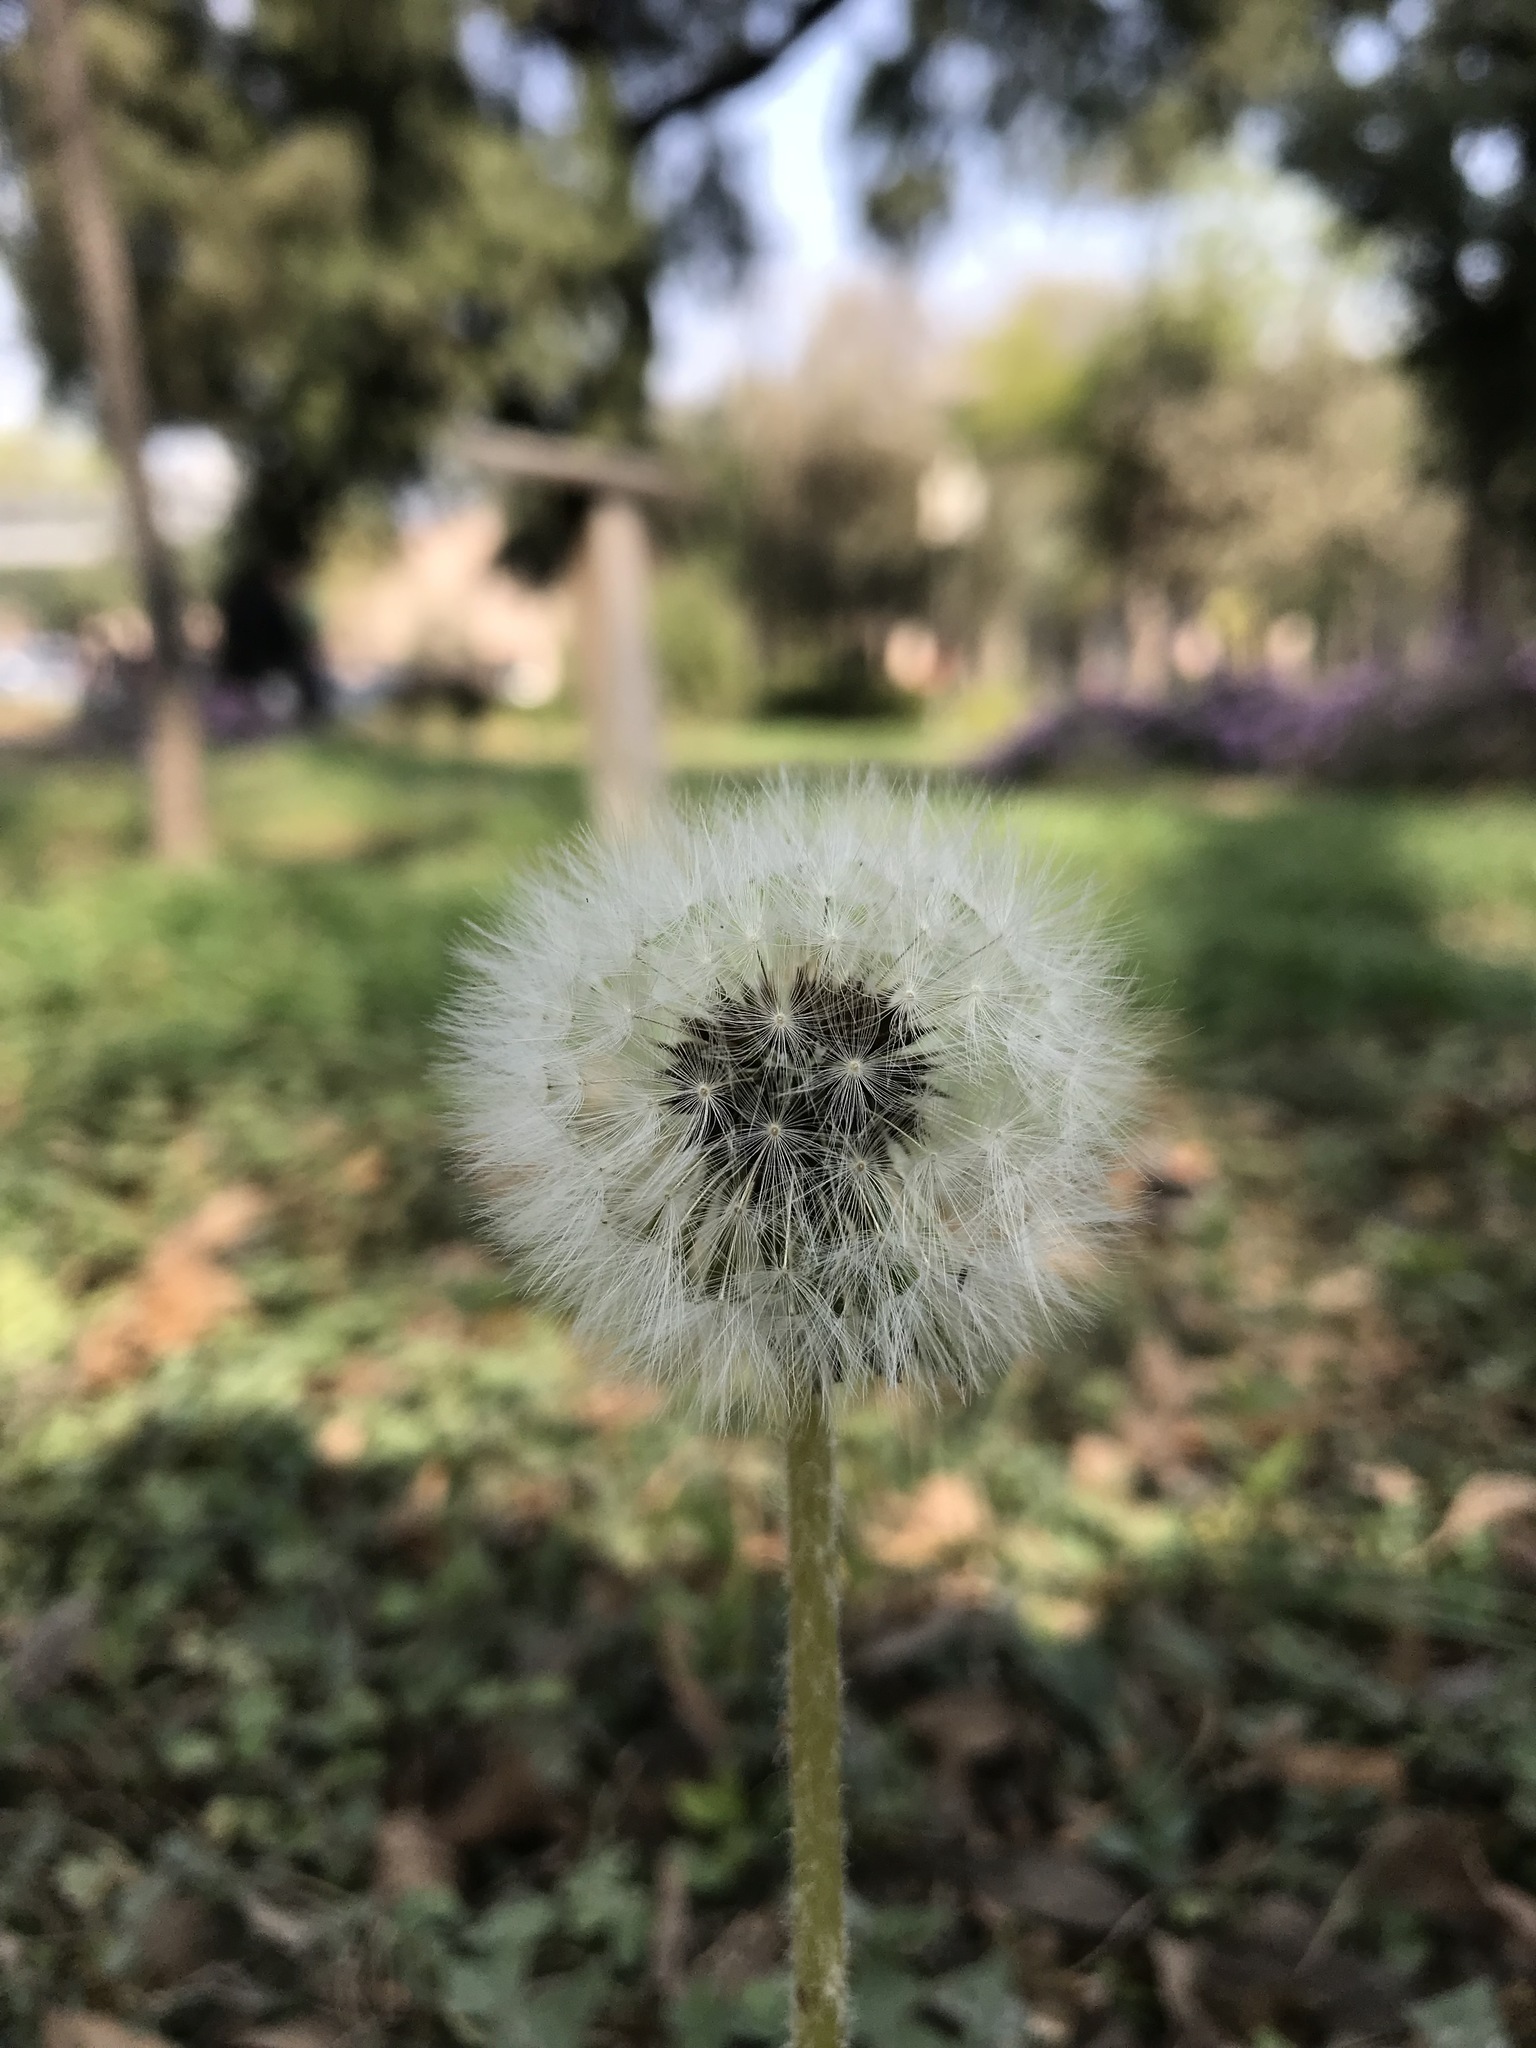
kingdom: Plantae
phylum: Tracheophyta
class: Magnoliopsida
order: Asterales
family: Asteraceae
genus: Taraxacum
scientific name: Taraxacum officinale
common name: Common dandelion
